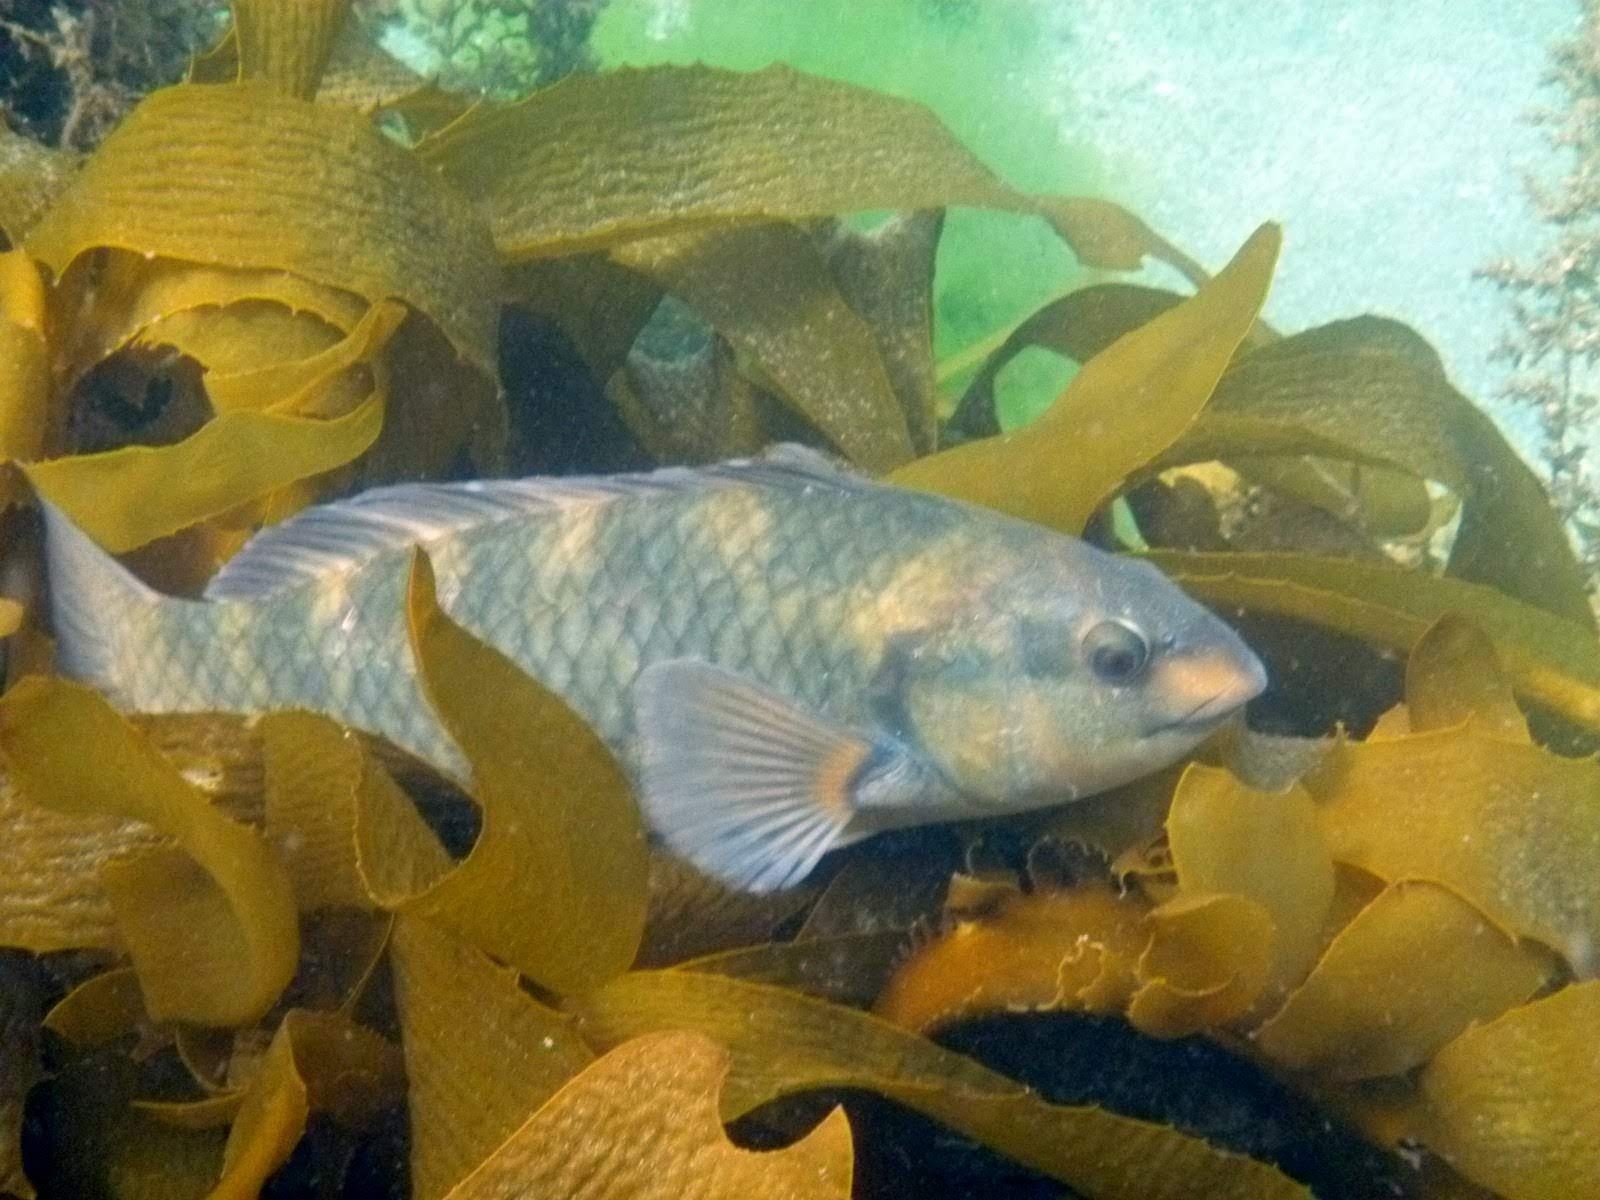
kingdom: Animalia
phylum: Chordata
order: Perciformes
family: Labridae
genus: Notolabrus
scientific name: Notolabrus fucicola
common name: Banded parrotfish
